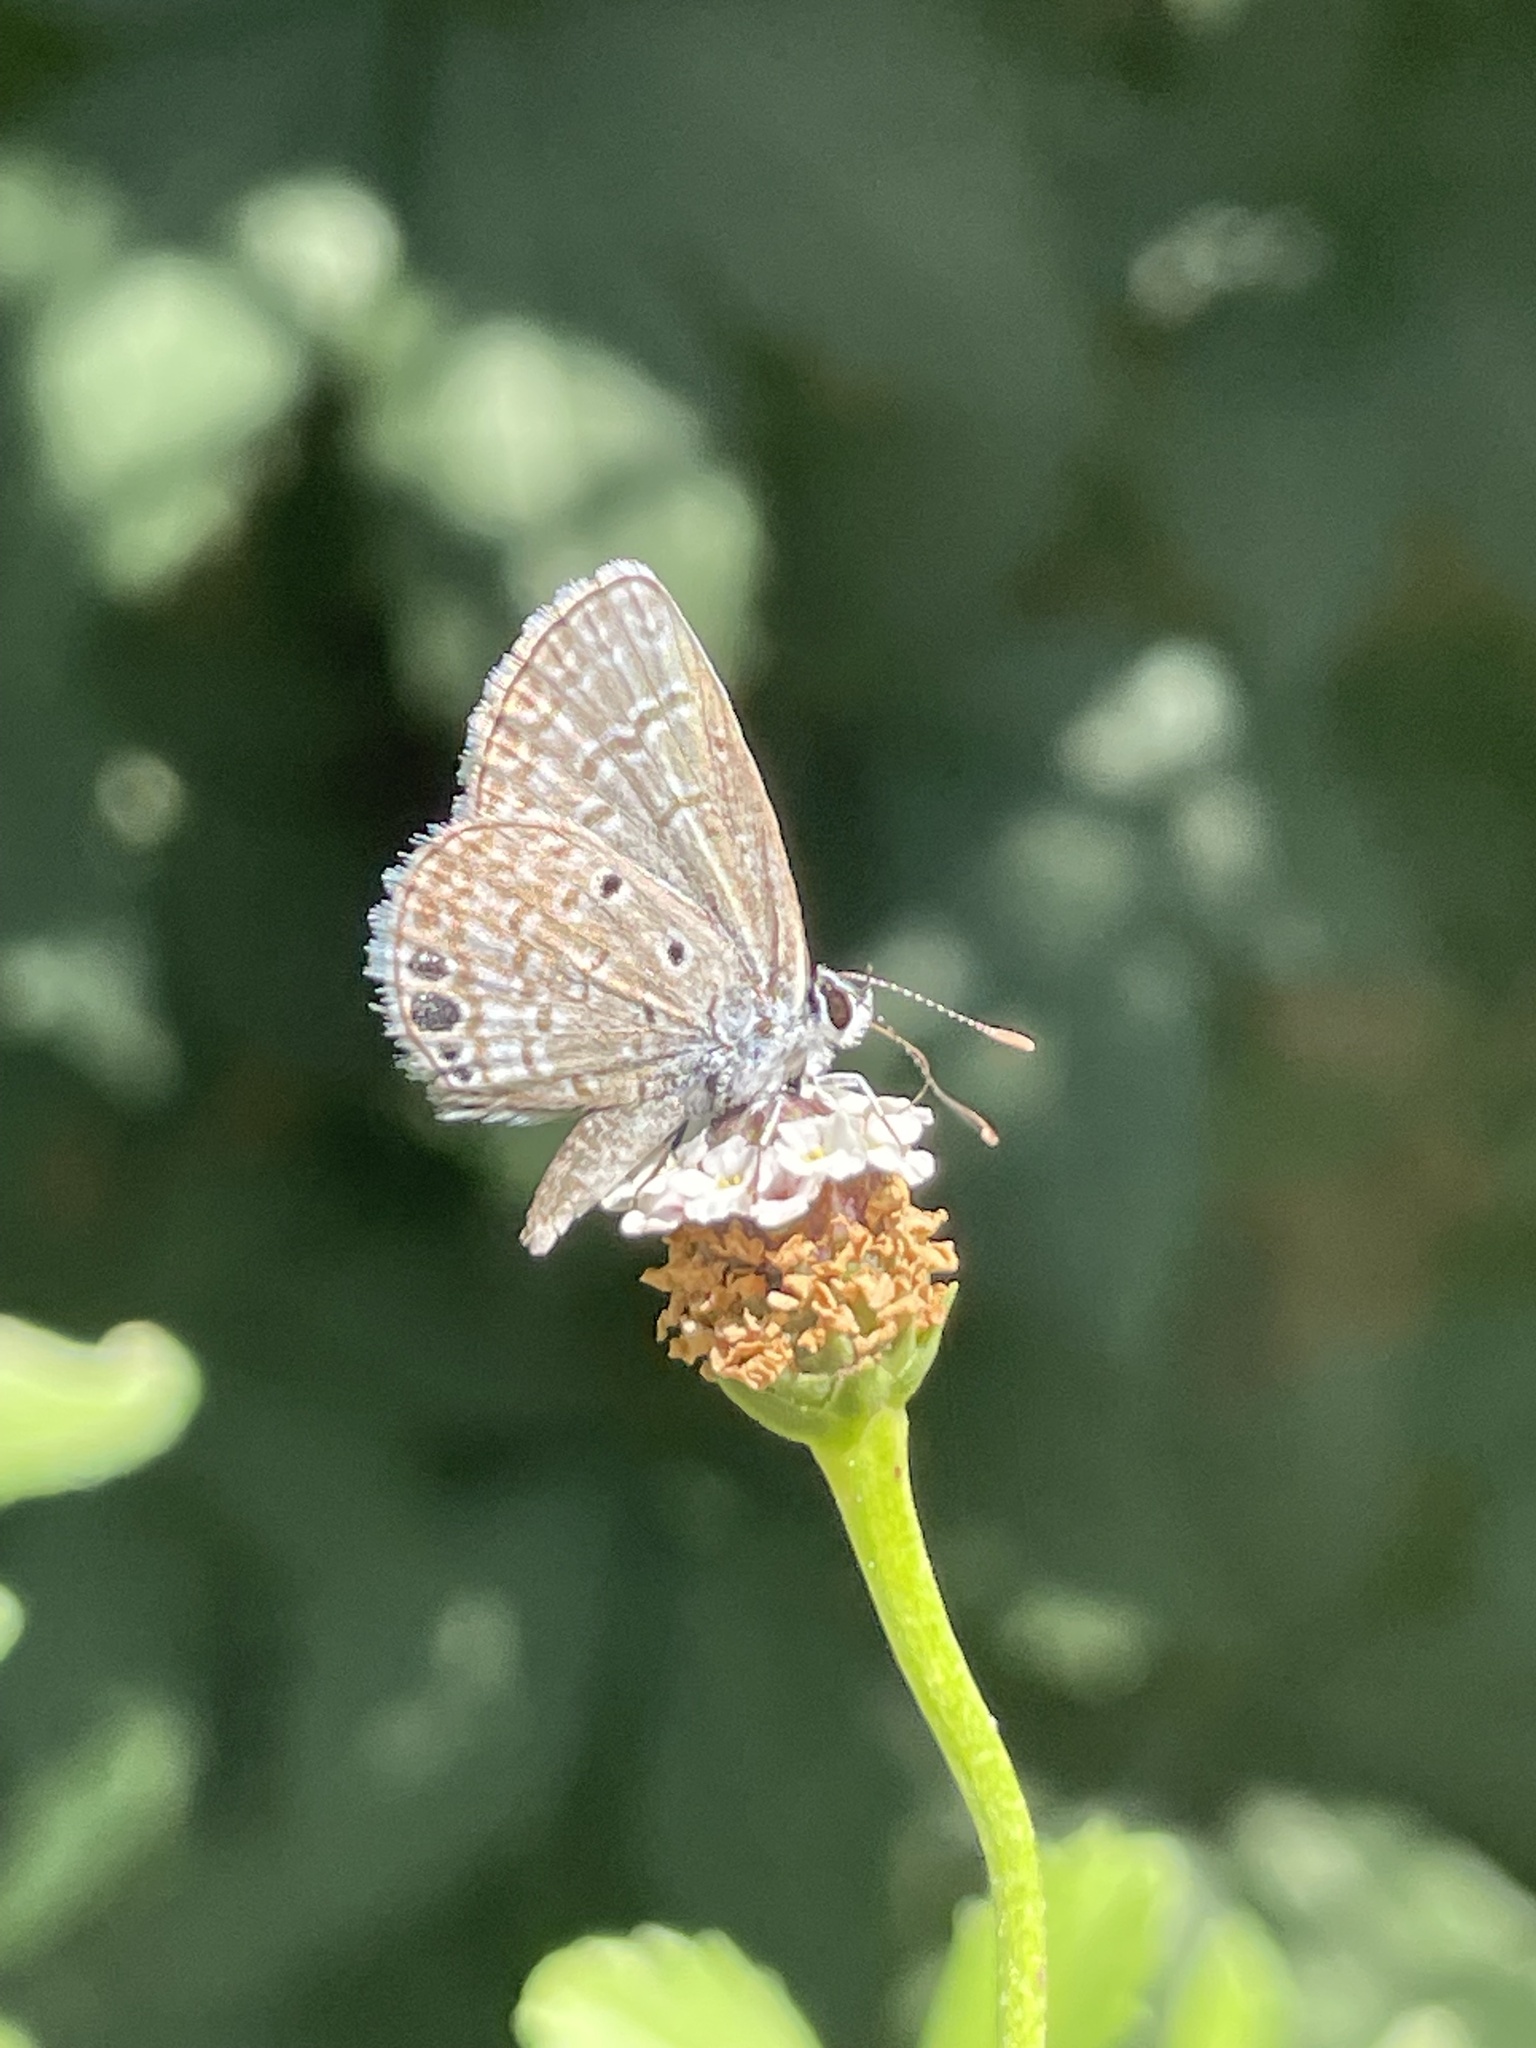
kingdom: Animalia
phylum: Arthropoda
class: Insecta
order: Lepidoptera
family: Lycaenidae
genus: Hemiargus
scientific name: Hemiargus ceraunus
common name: Ceraunus blue
